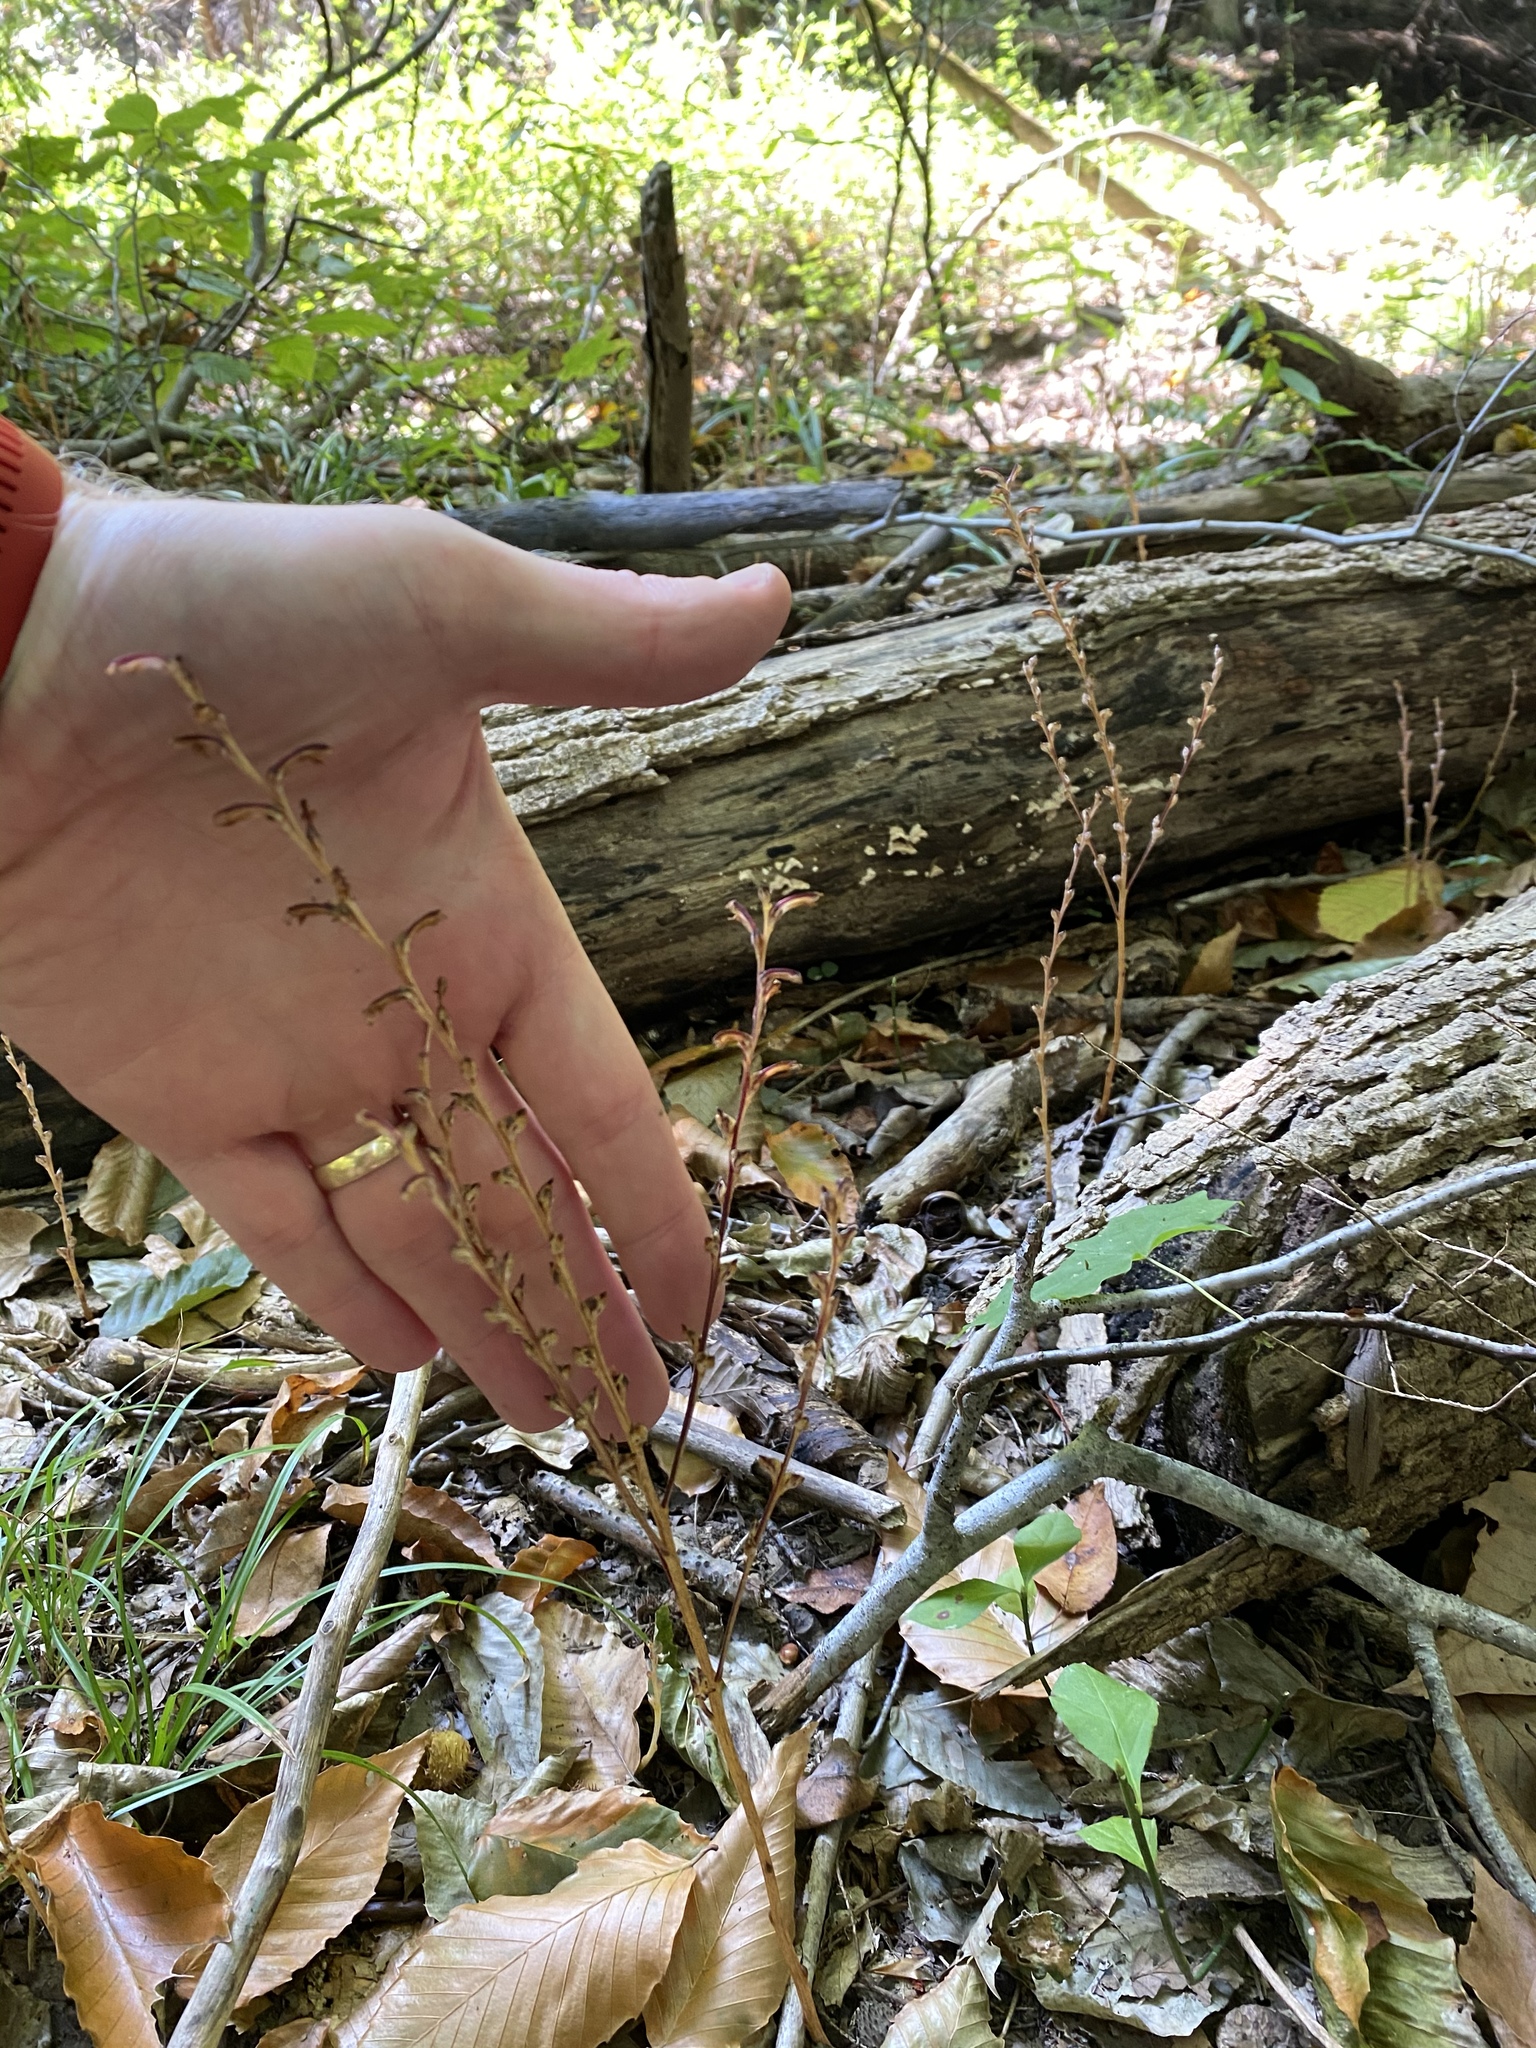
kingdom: Plantae
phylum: Tracheophyta
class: Magnoliopsida
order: Lamiales
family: Orobanchaceae
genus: Epifagus
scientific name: Epifagus virginiana
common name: Beechdrops
